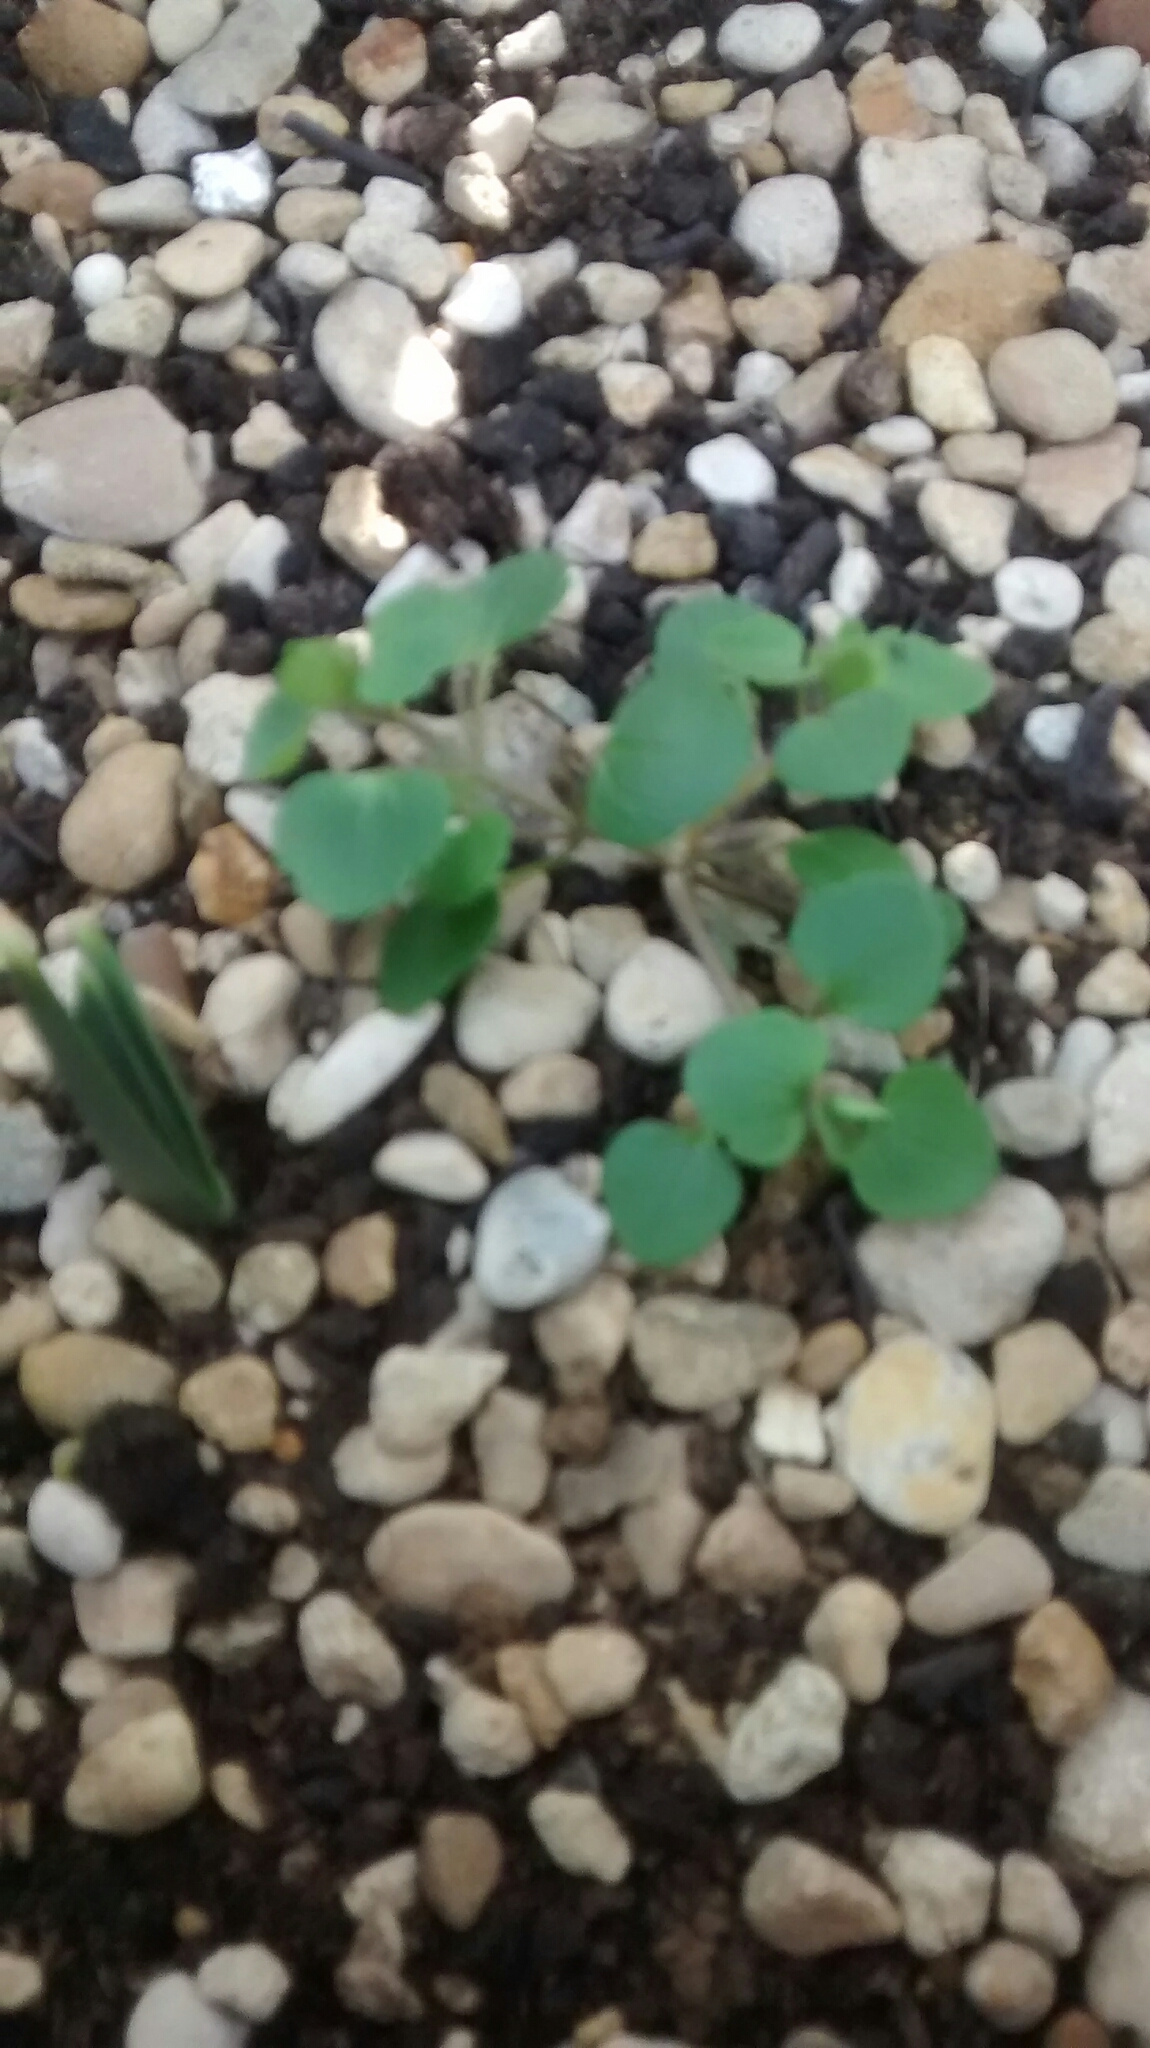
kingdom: Plantae
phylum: Tracheophyta
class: Magnoliopsida
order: Lamiales
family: Plantaginaceae
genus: Veronica
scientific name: Veronica hederifolia
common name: Ivy-leaved speedwell
